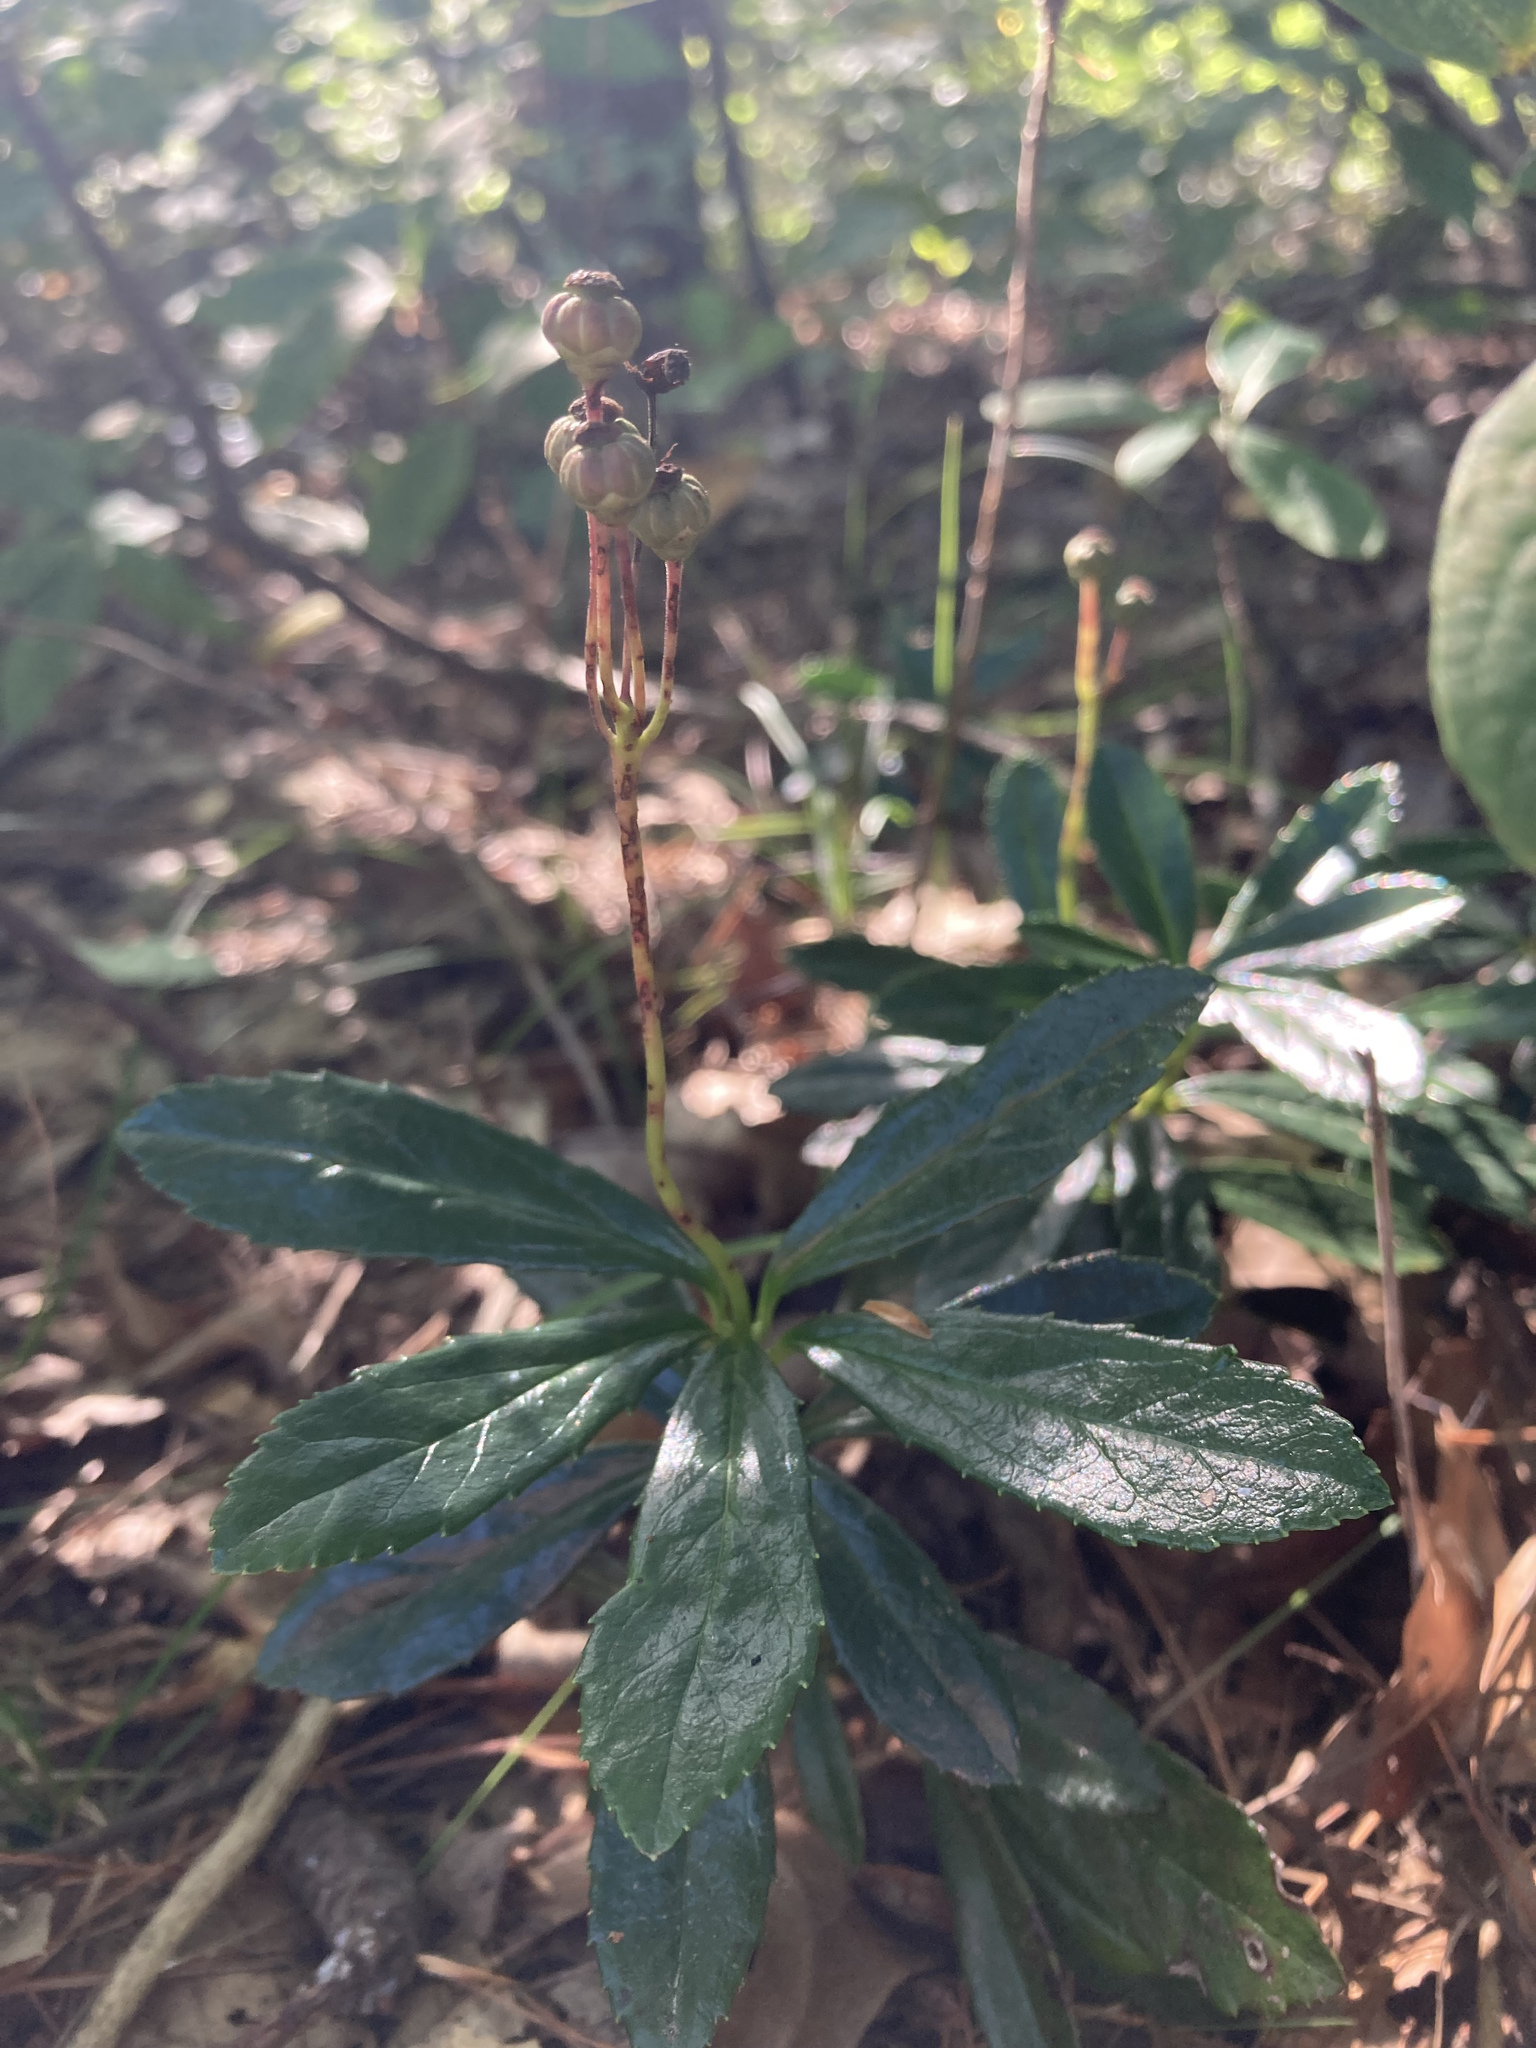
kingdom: Plantae
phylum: Tracheophyta
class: Magnoliopsida
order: Ericales
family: Ericaceae
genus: Chimaphila
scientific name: Chimaphila umbellata
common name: Pipsissewa
